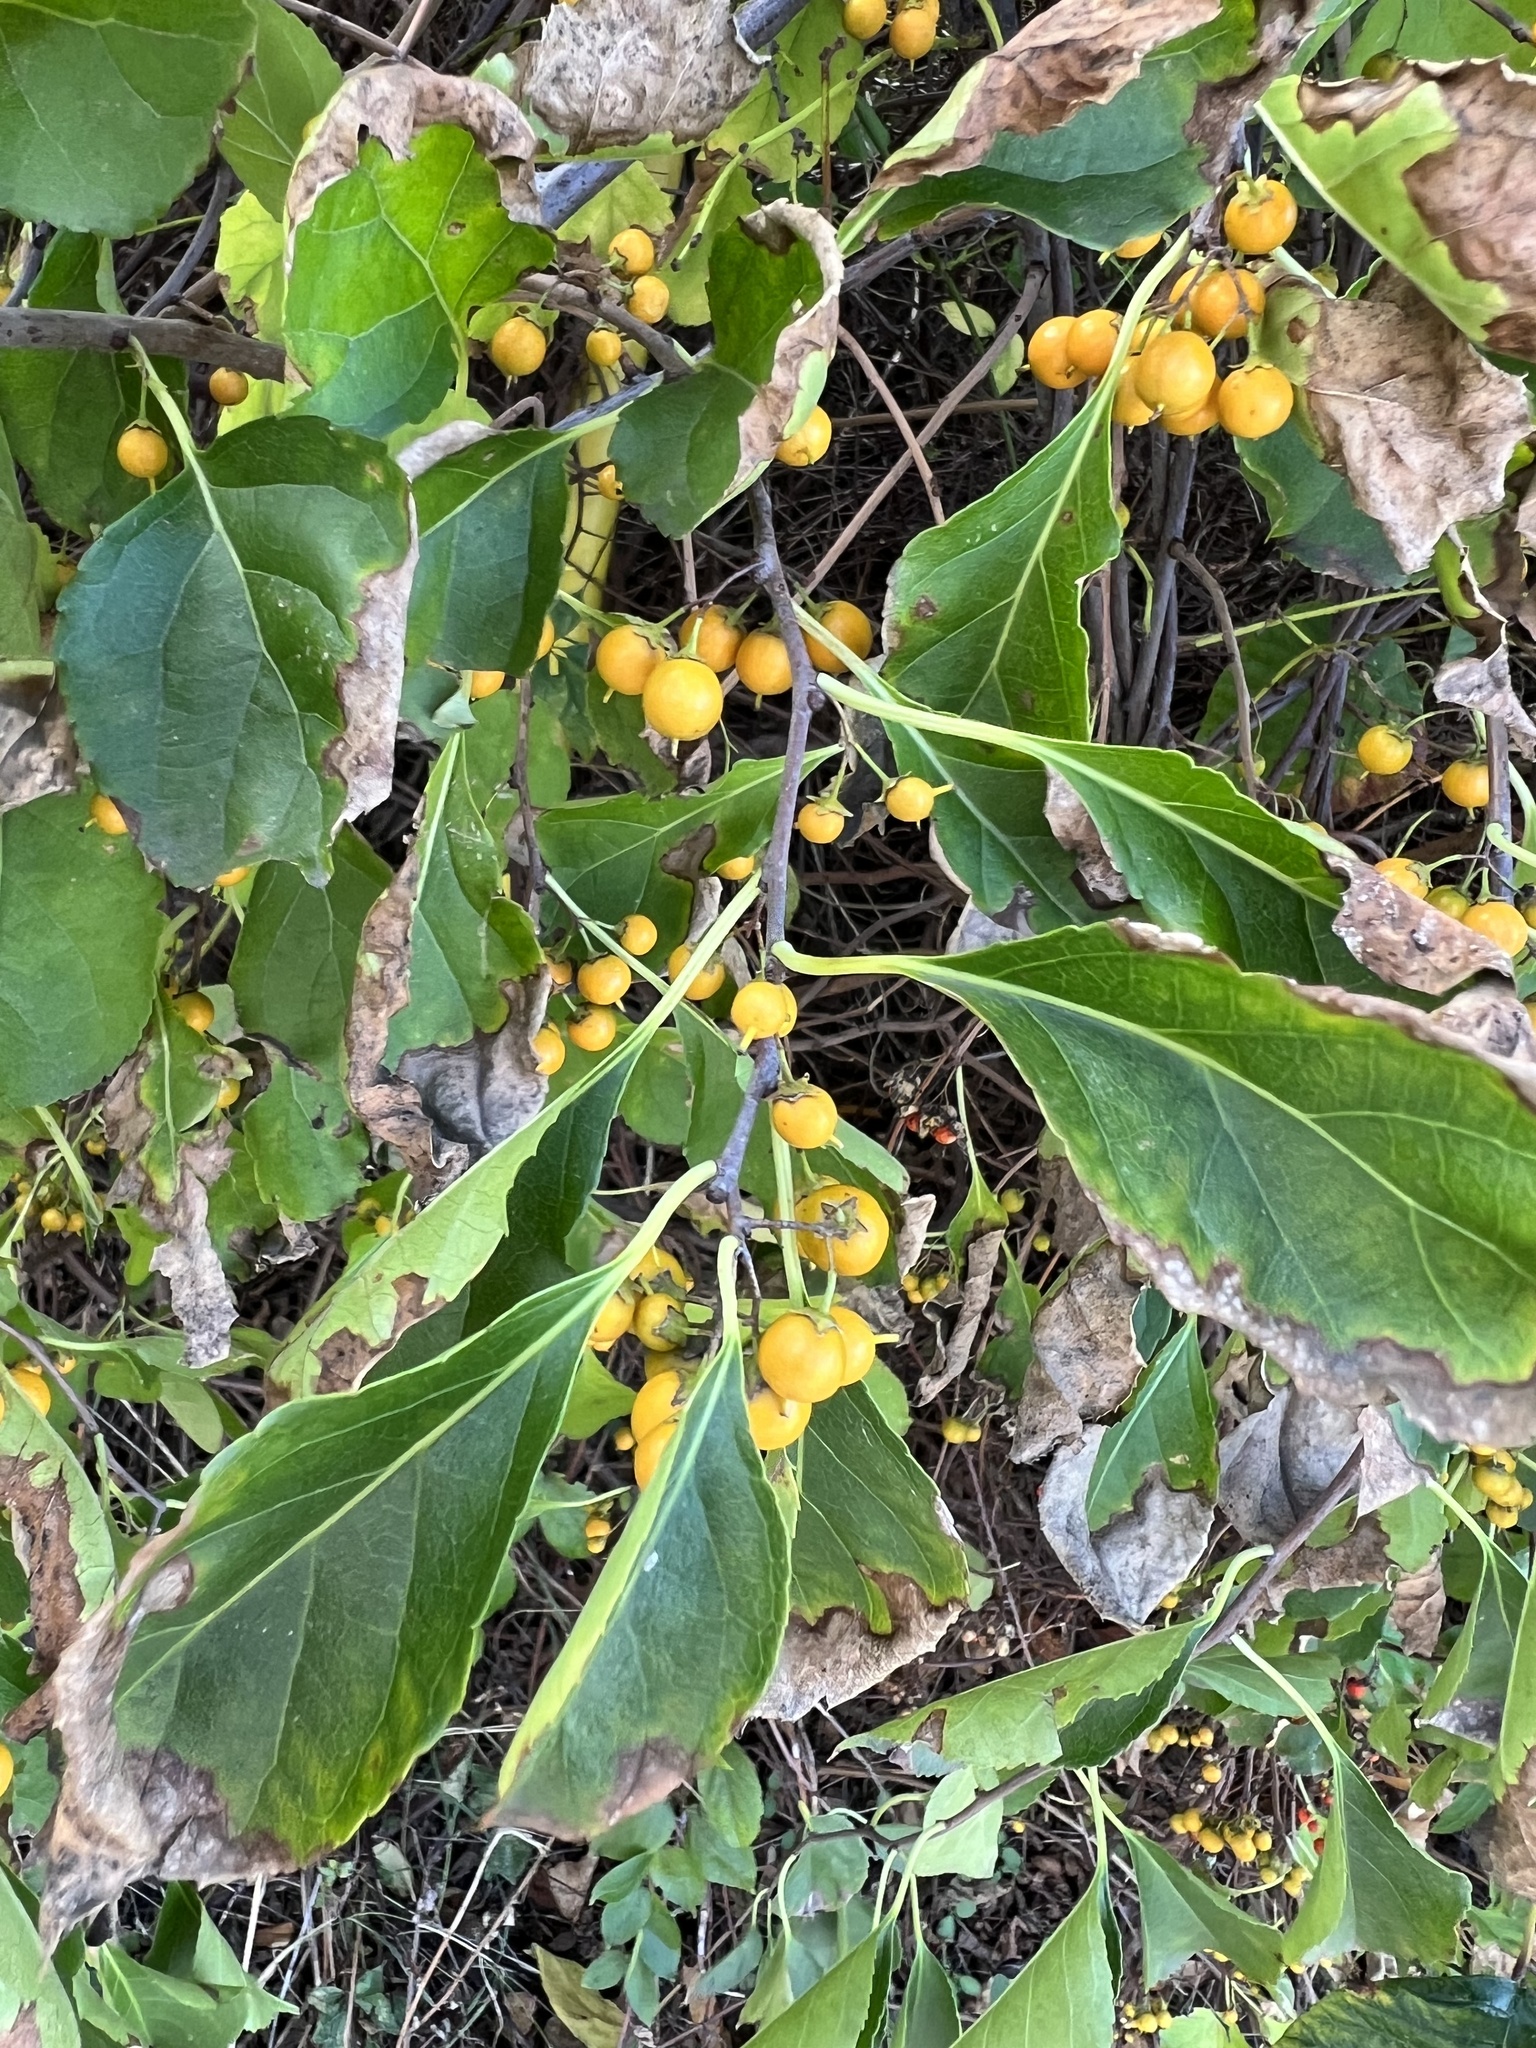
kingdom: Plantae
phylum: Tracheophyta
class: Magnoliopsida
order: Celastrales
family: Celastraceae
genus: Celastrus
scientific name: Celastrus orbiculatus
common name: Oriental bittersweet
